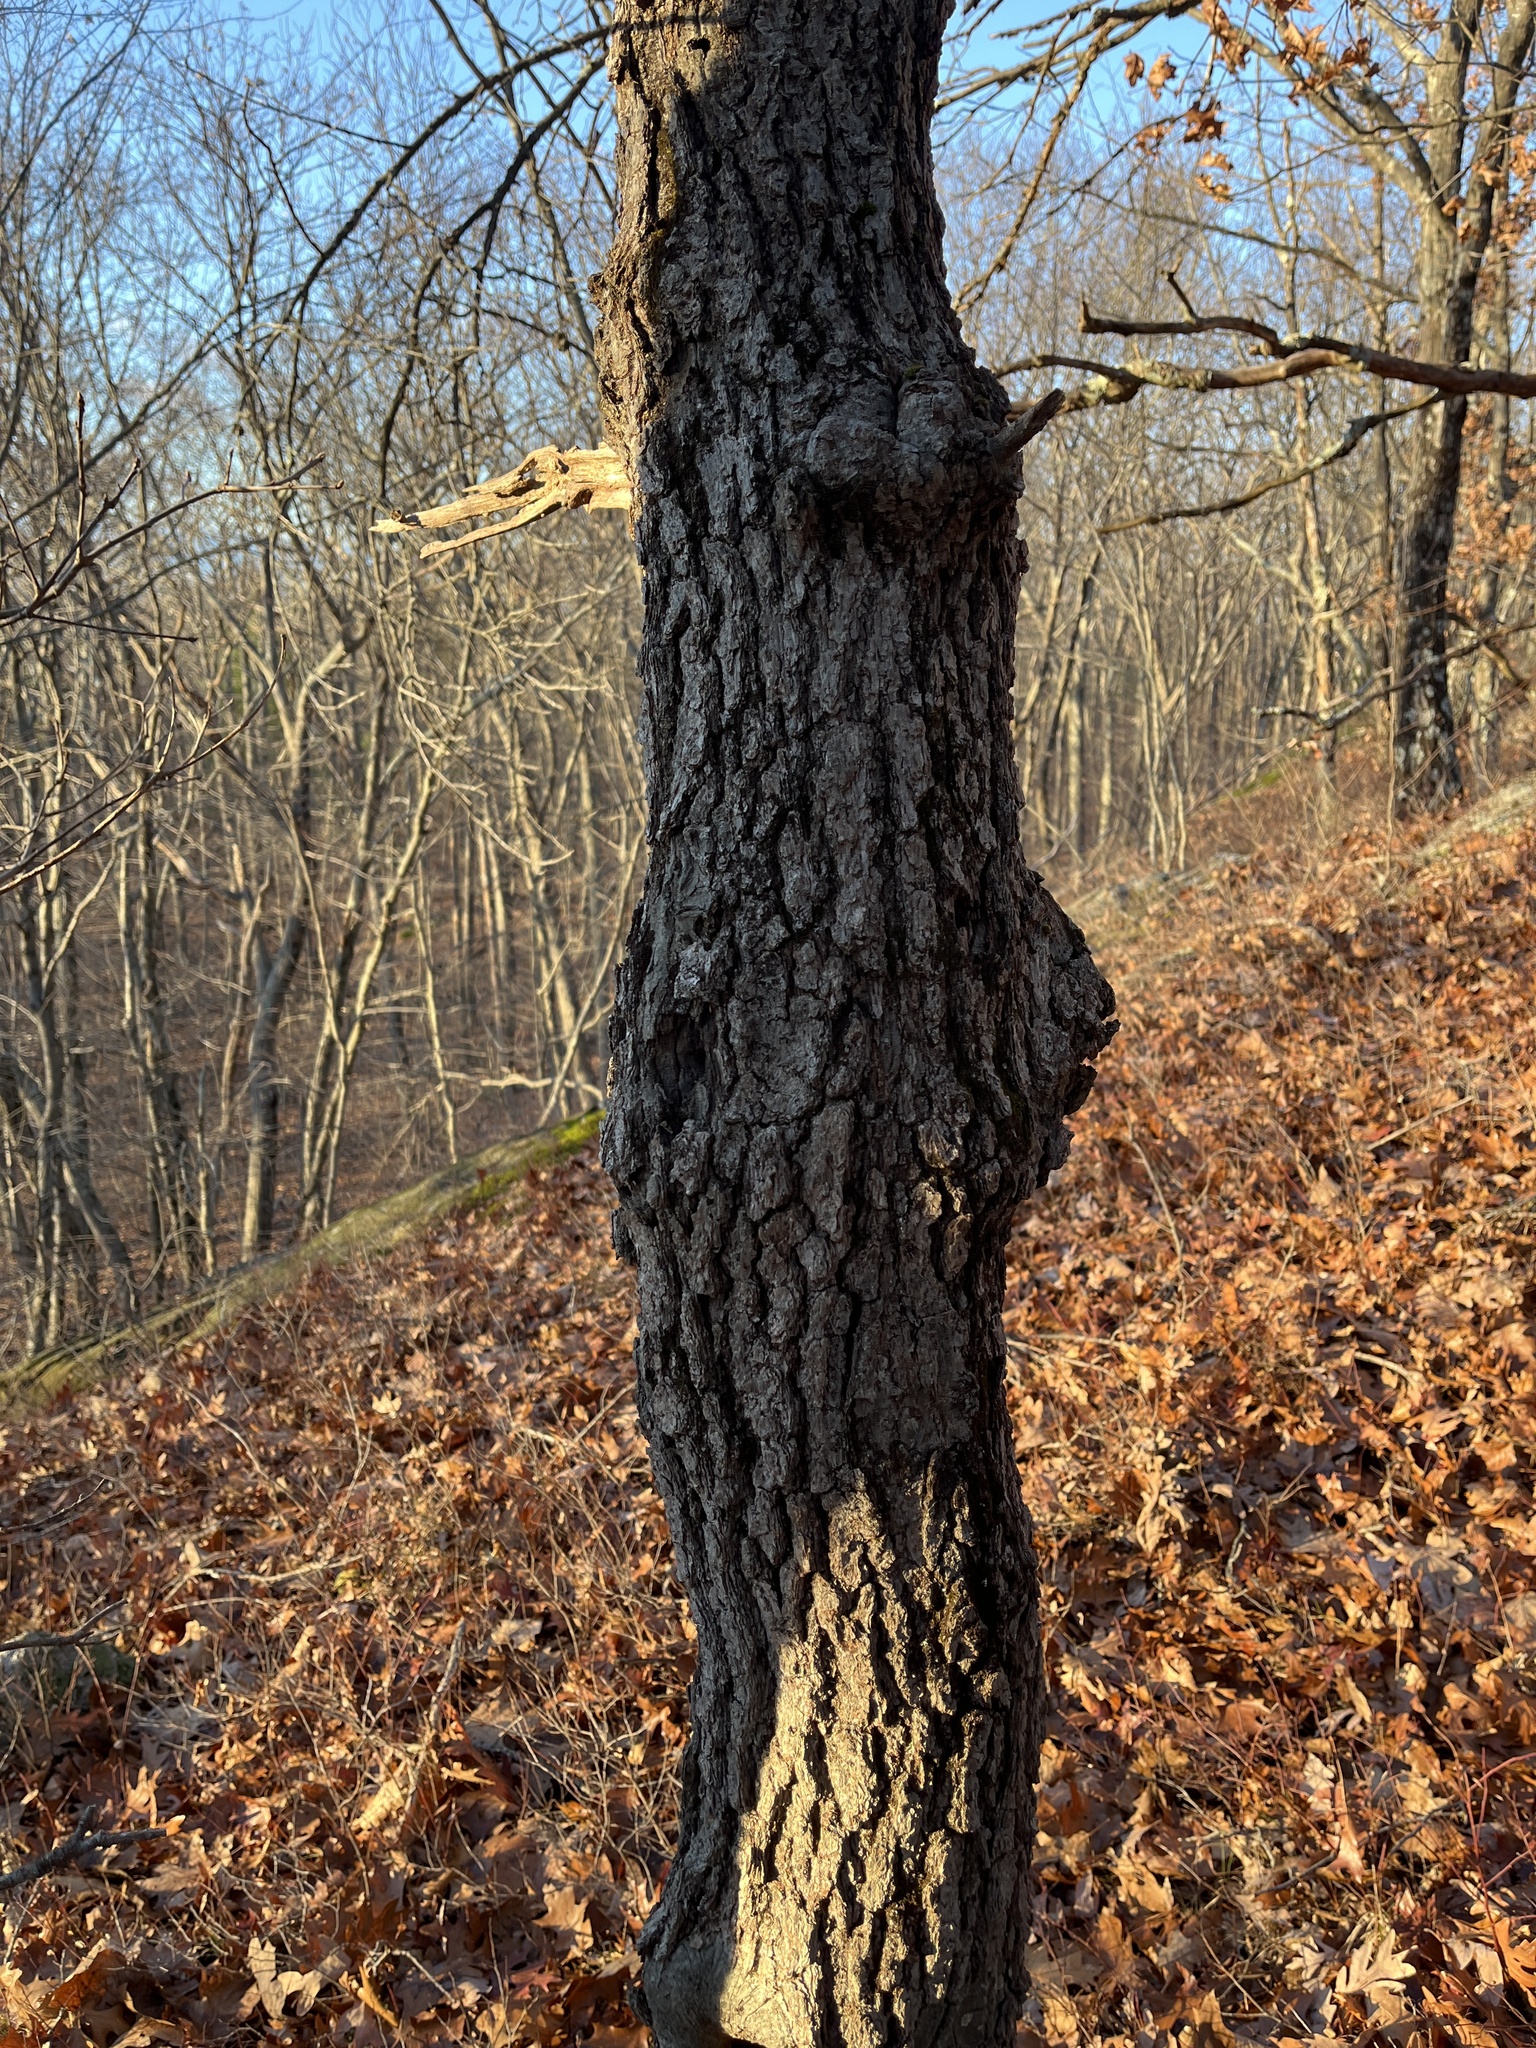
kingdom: Plantae
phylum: Tracheophyta
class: Magnoliopsida
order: Fagales
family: Fagaceae
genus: Quercus
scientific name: Quercus coccinea
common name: Scarlet oak
